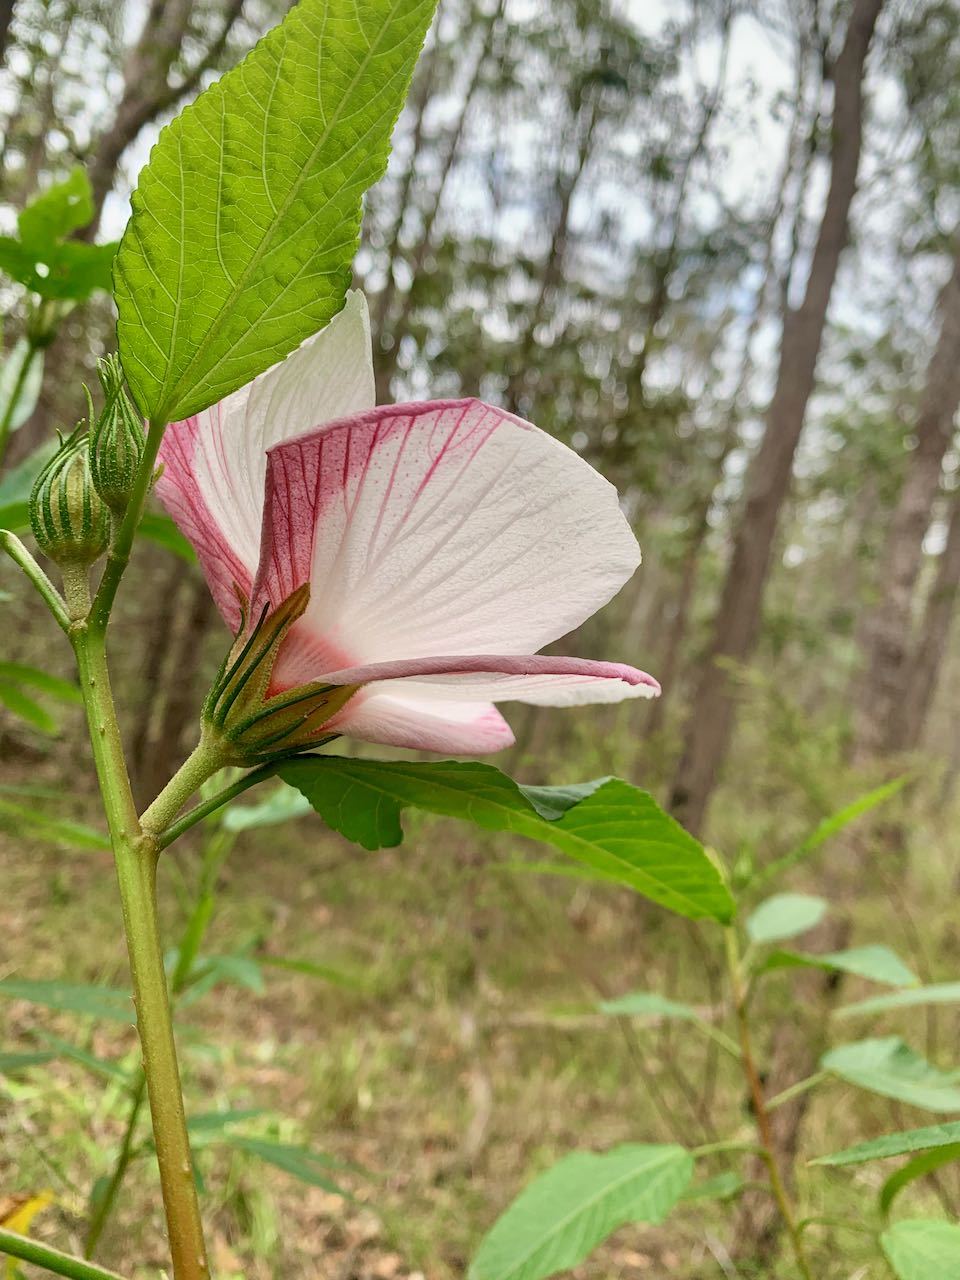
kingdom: Plantae
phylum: Tracheophyta
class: Magnoliopsida
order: Malvales
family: Malvaceae
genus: Hibiscus
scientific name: Hibiscus heterophyllus
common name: Queensland-sorrel
